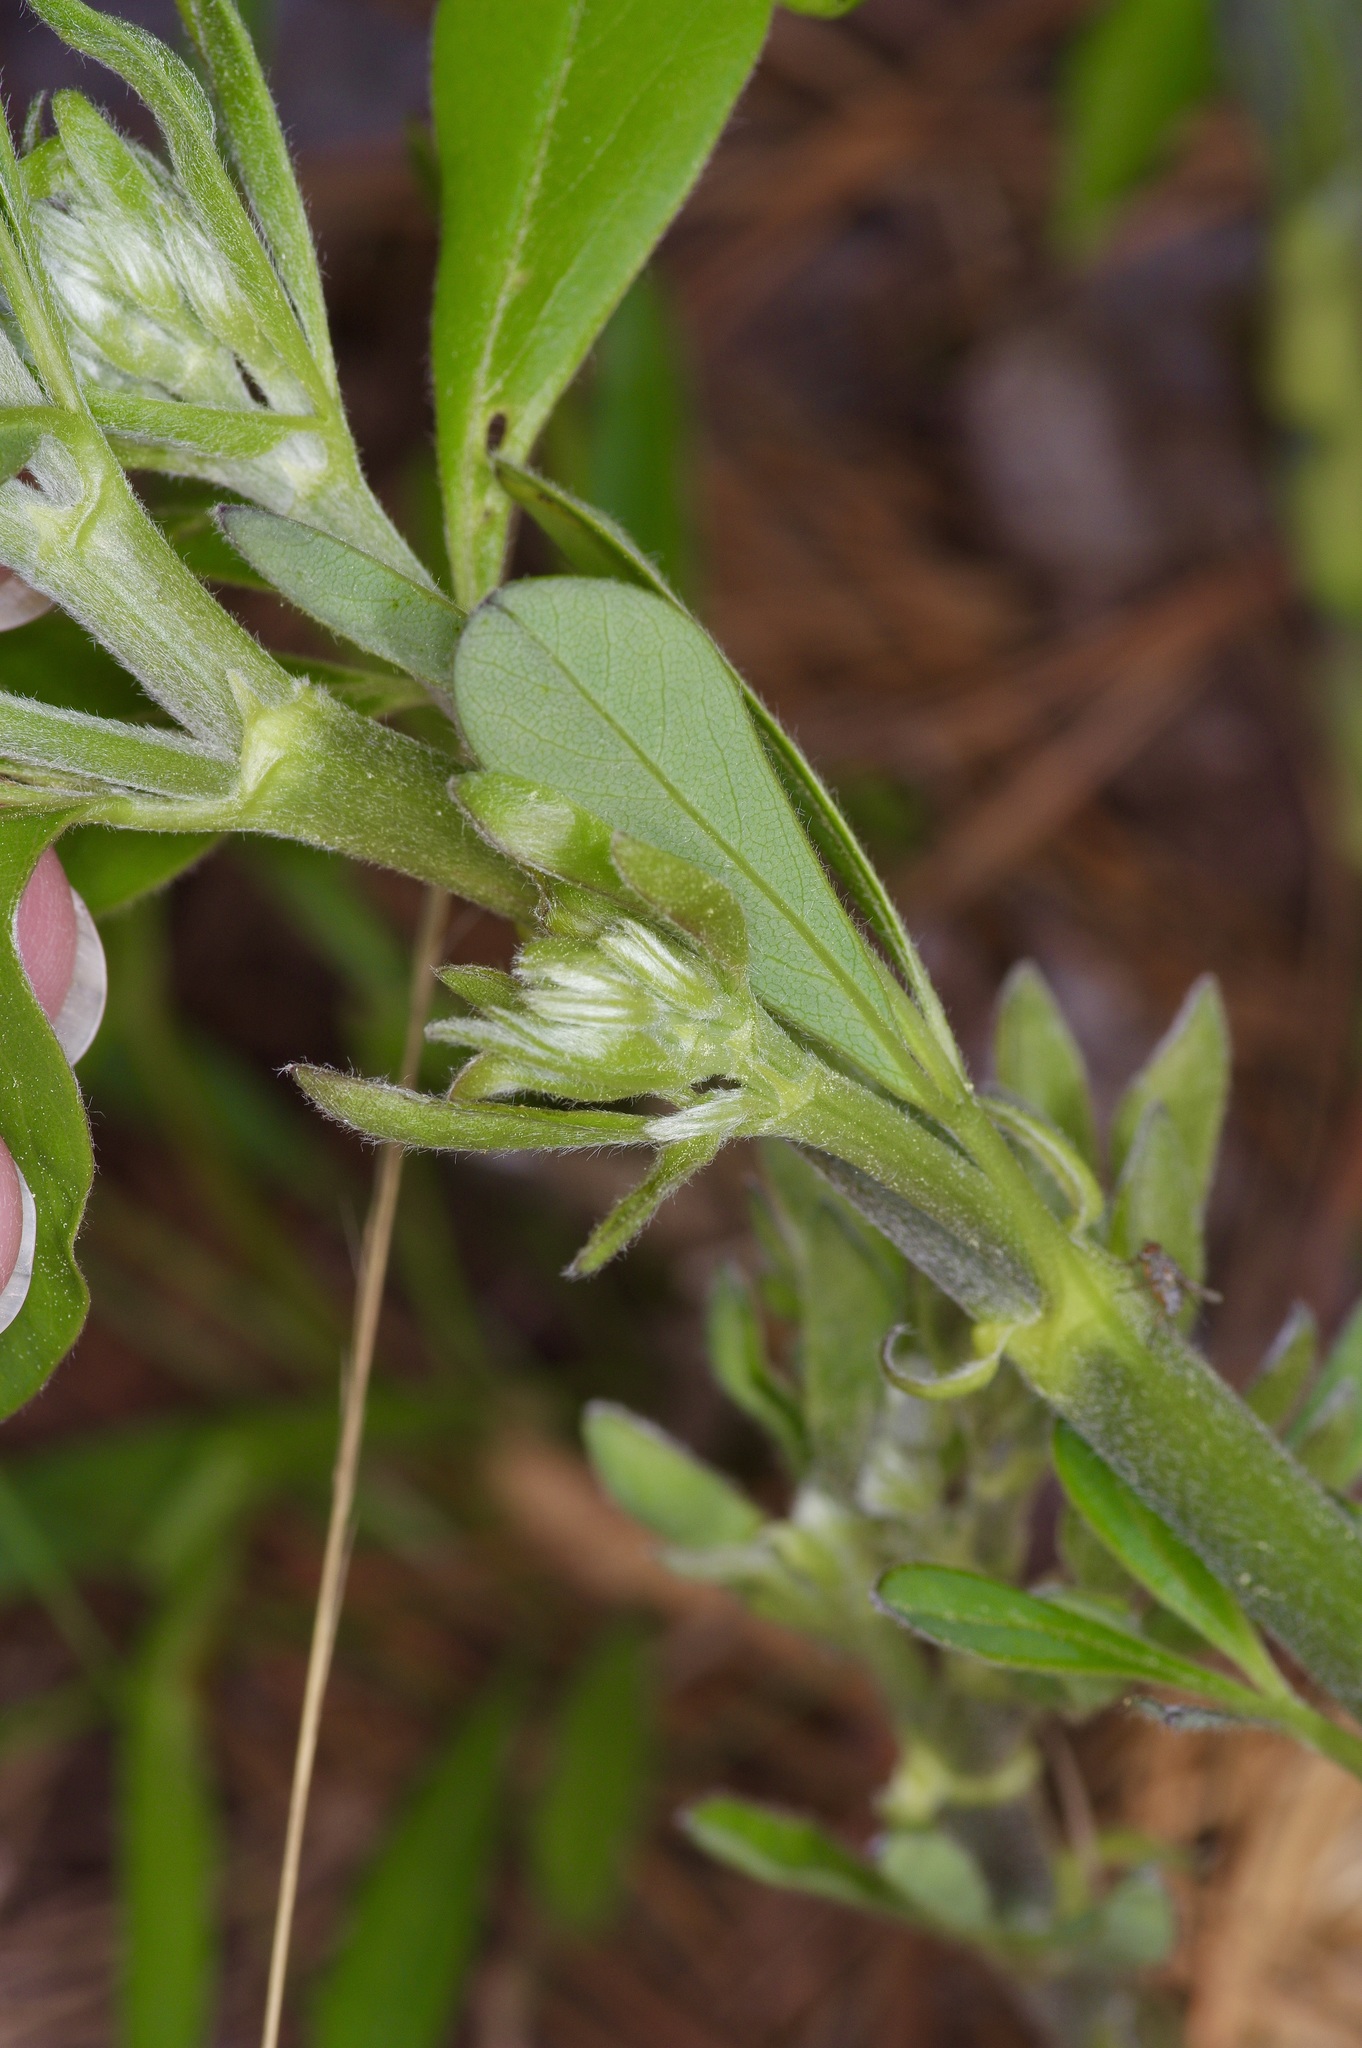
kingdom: Plantae
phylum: Tracheophyta
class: Magnoliopsida
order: Fabales
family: Fabaceae
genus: Baptisia
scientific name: Baptisia nuttalliana
